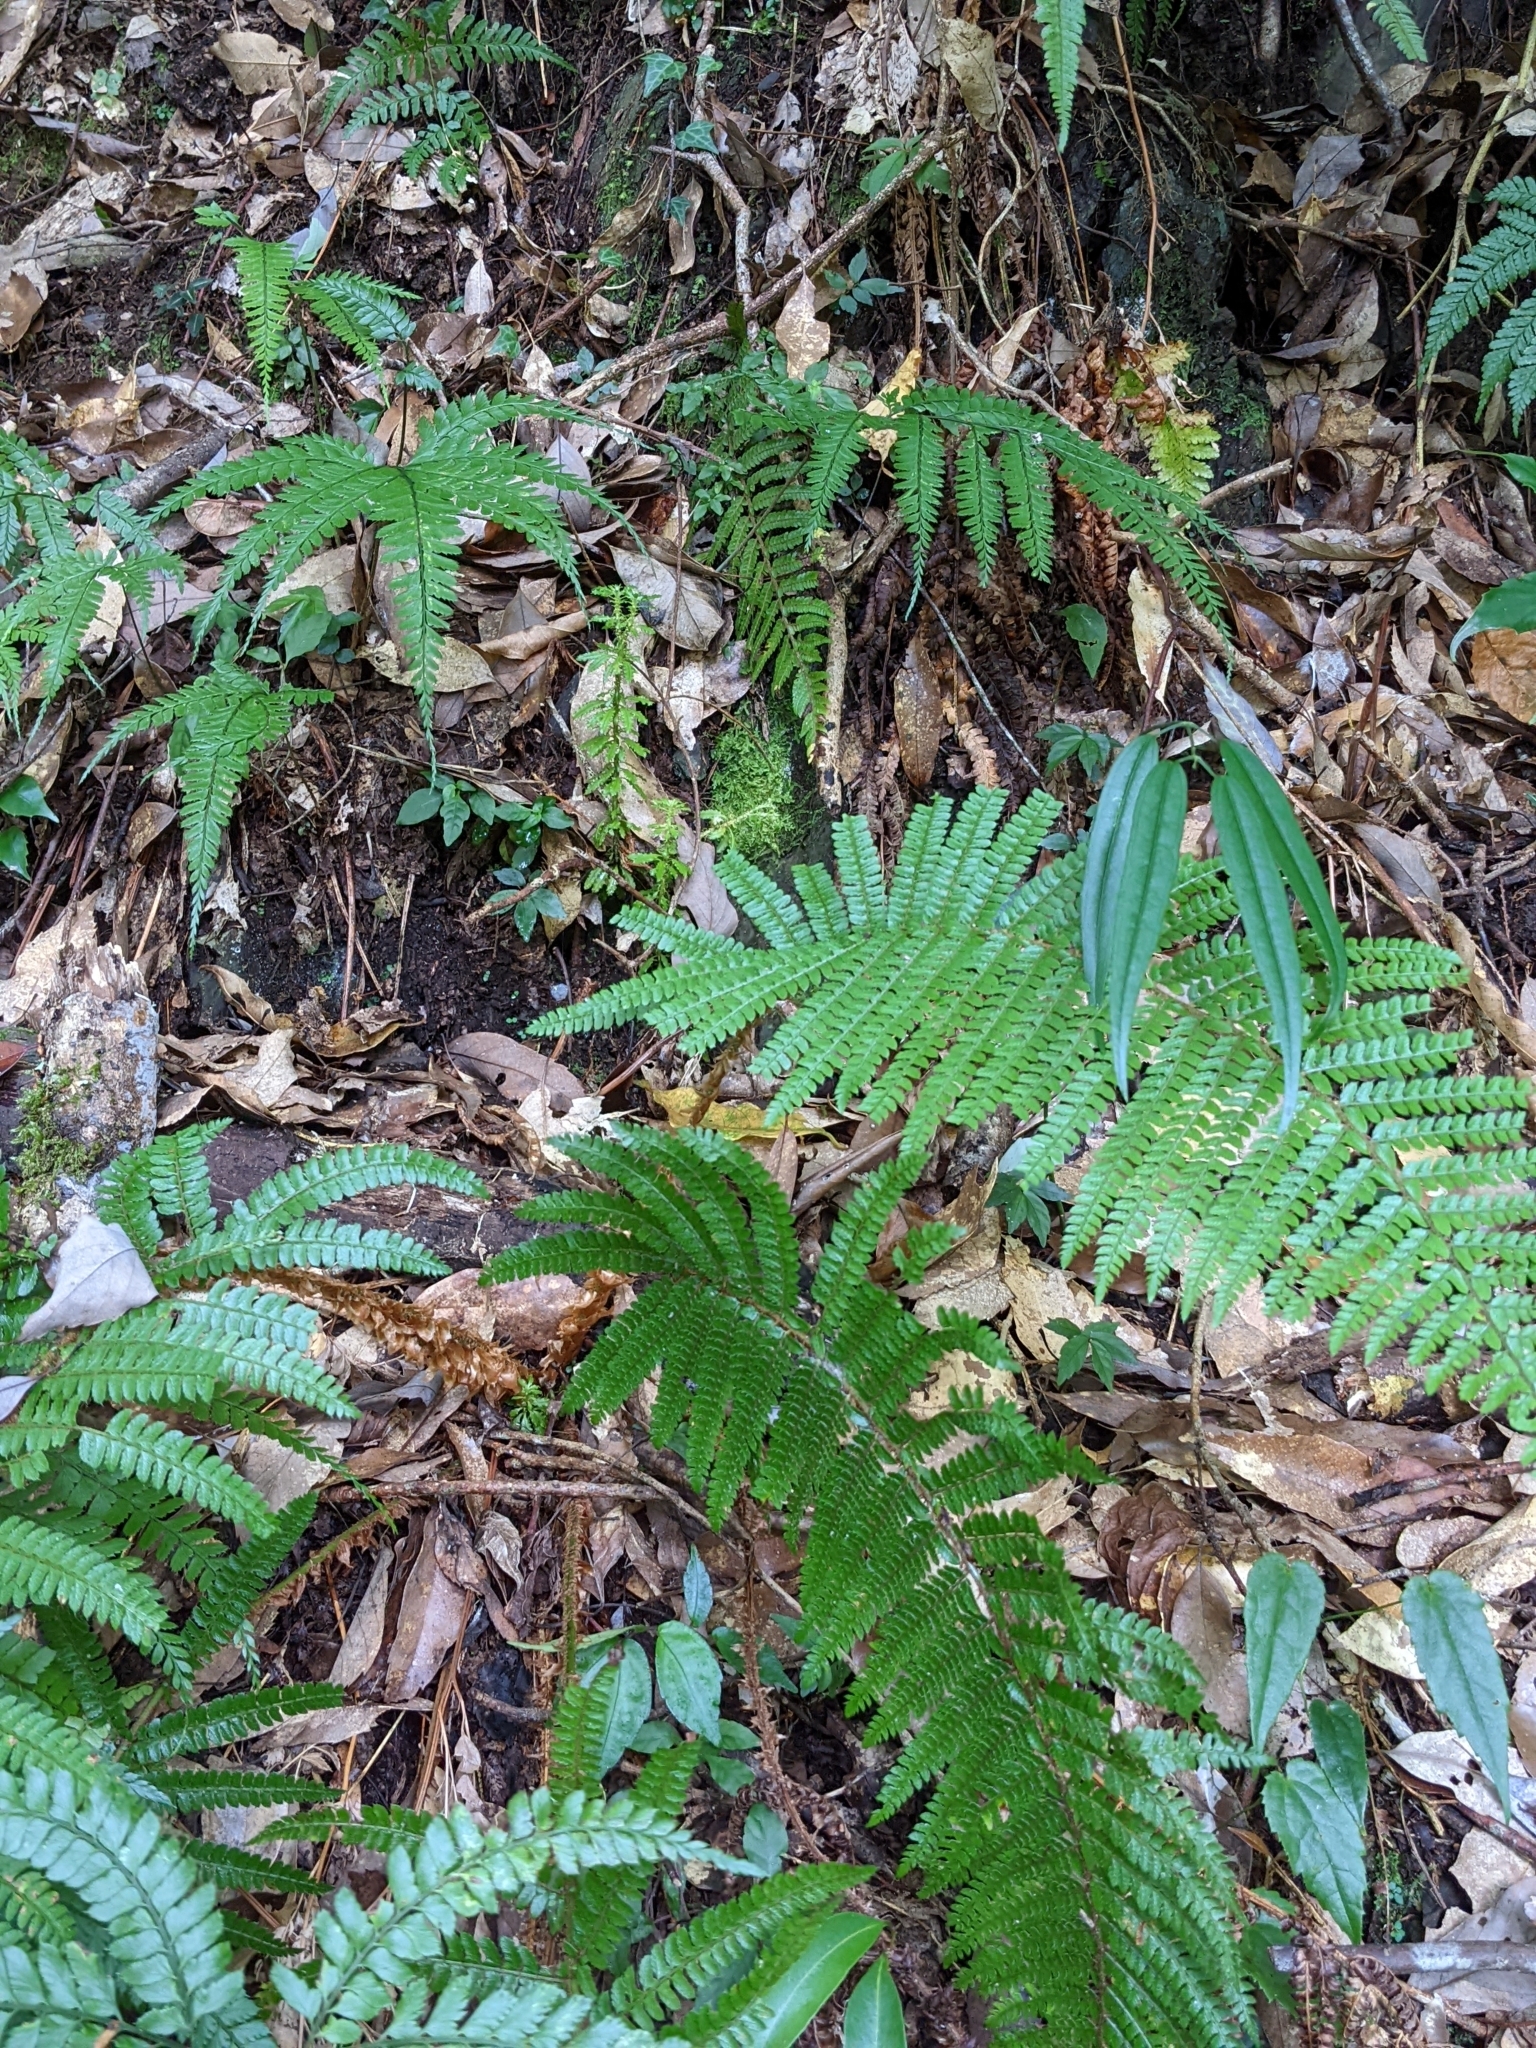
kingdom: Plantae
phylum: Tracheophyta
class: Polypodiopsida
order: Polypodiales
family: Dryopteridaceae
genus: Polystichum
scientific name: Polystichum parvipinnulum
